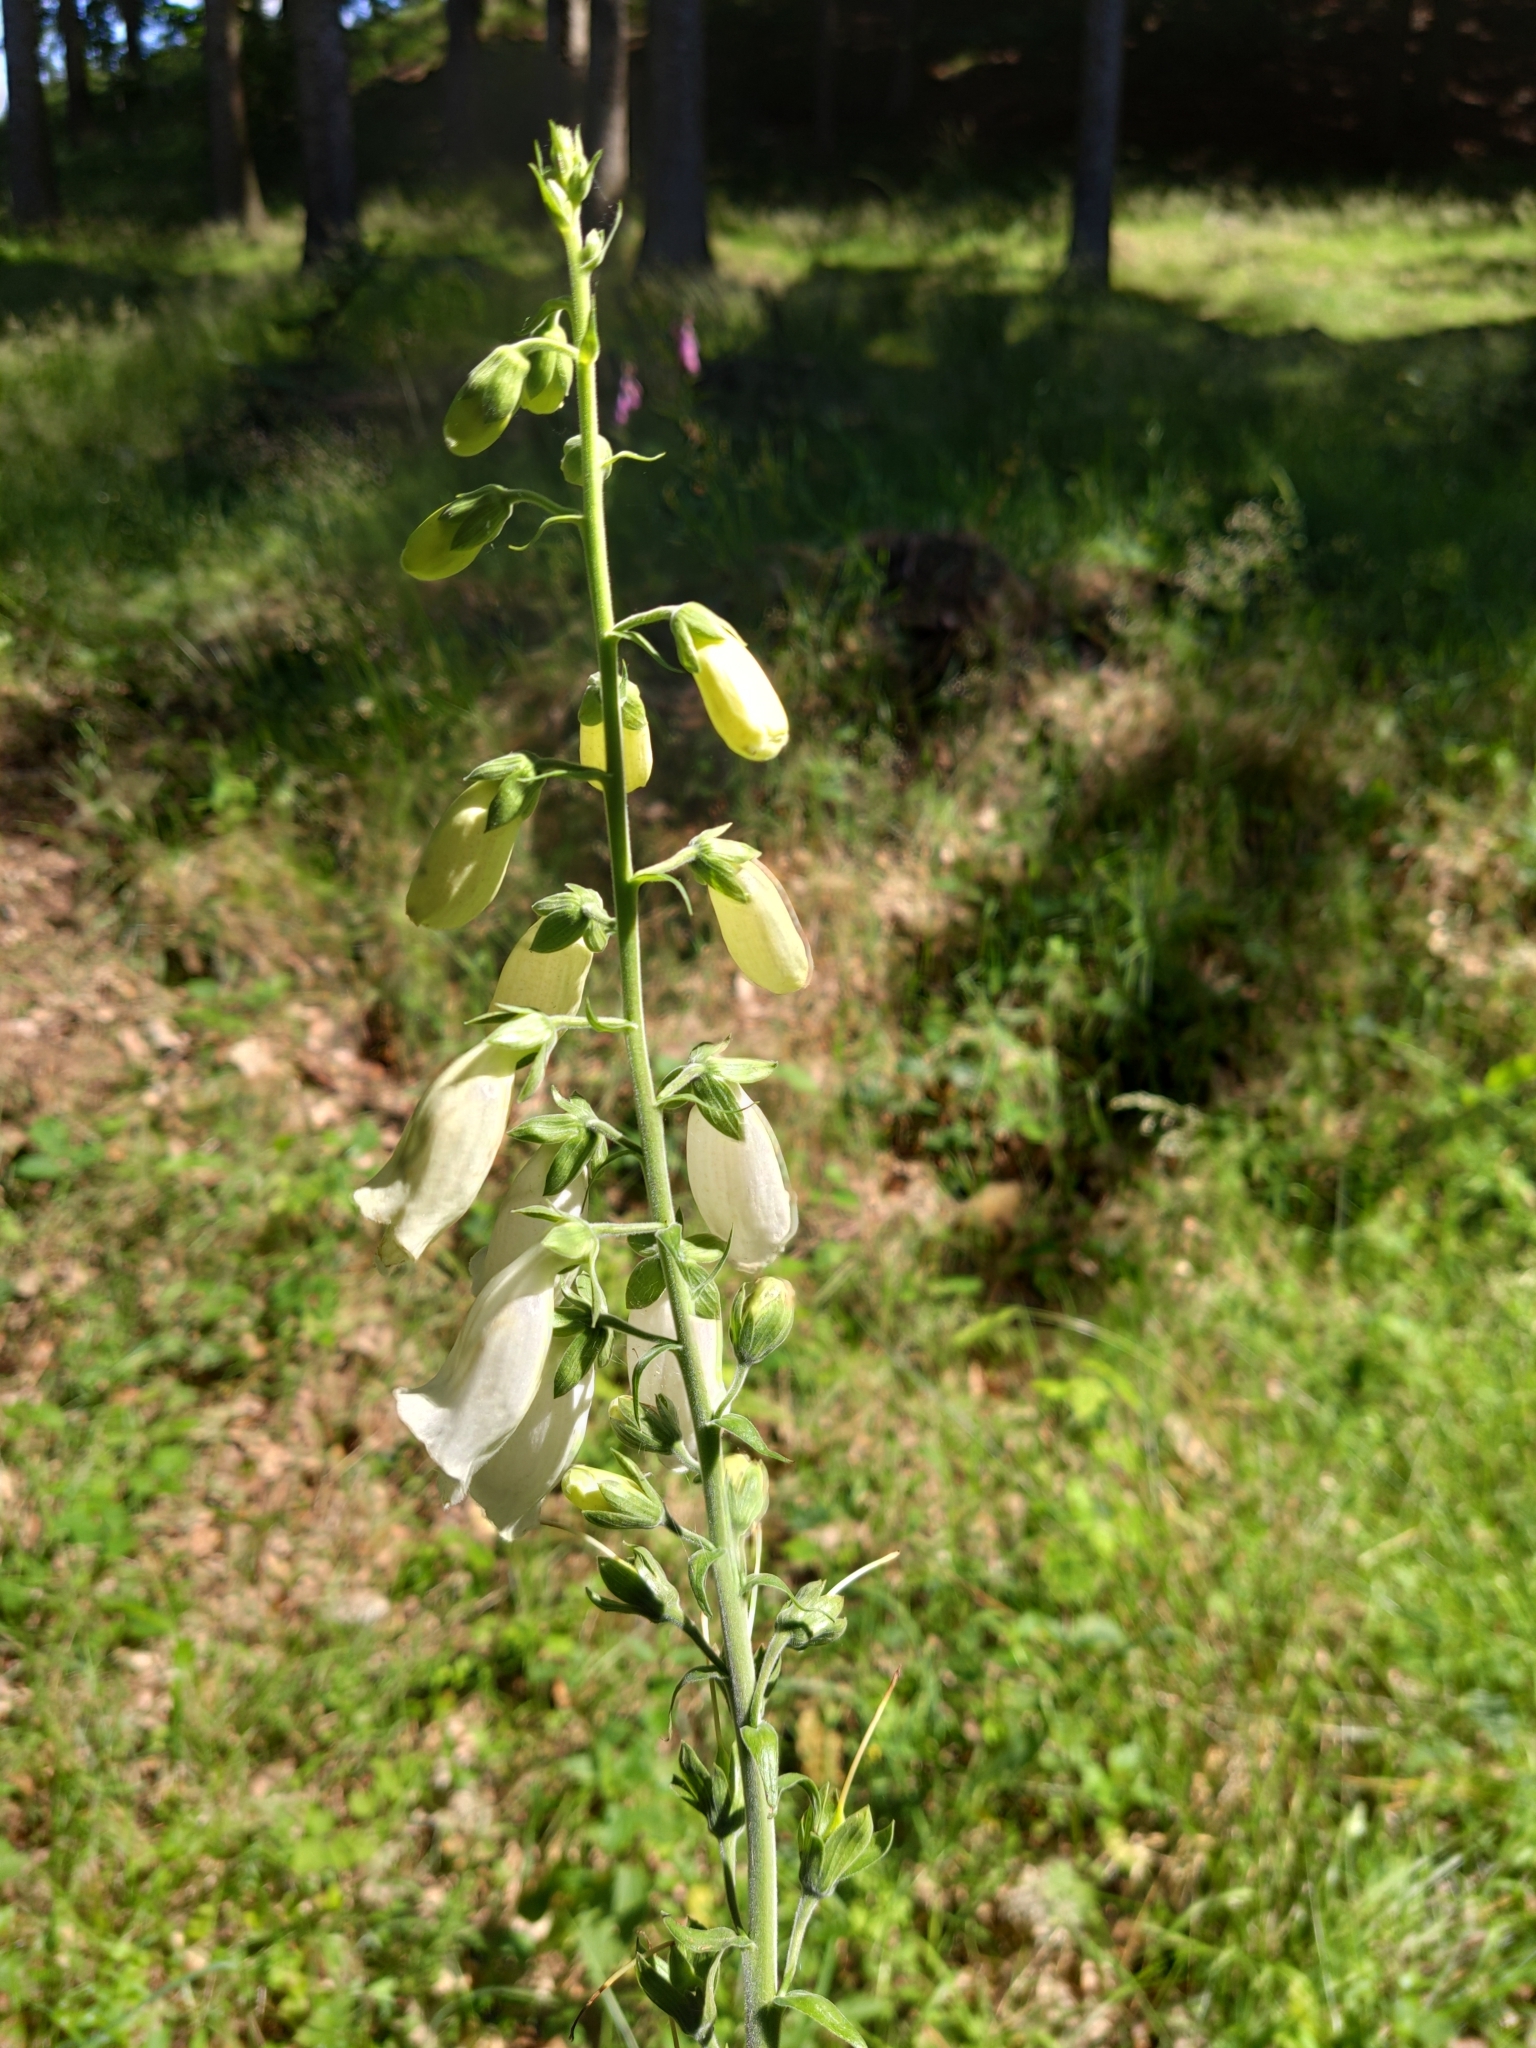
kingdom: Plantae
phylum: Tracheophyta
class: Magnoliopsida
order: Lamiales
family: Plantaginaceae
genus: Digitalis
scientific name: Digitalis purpurea
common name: Foxglove
